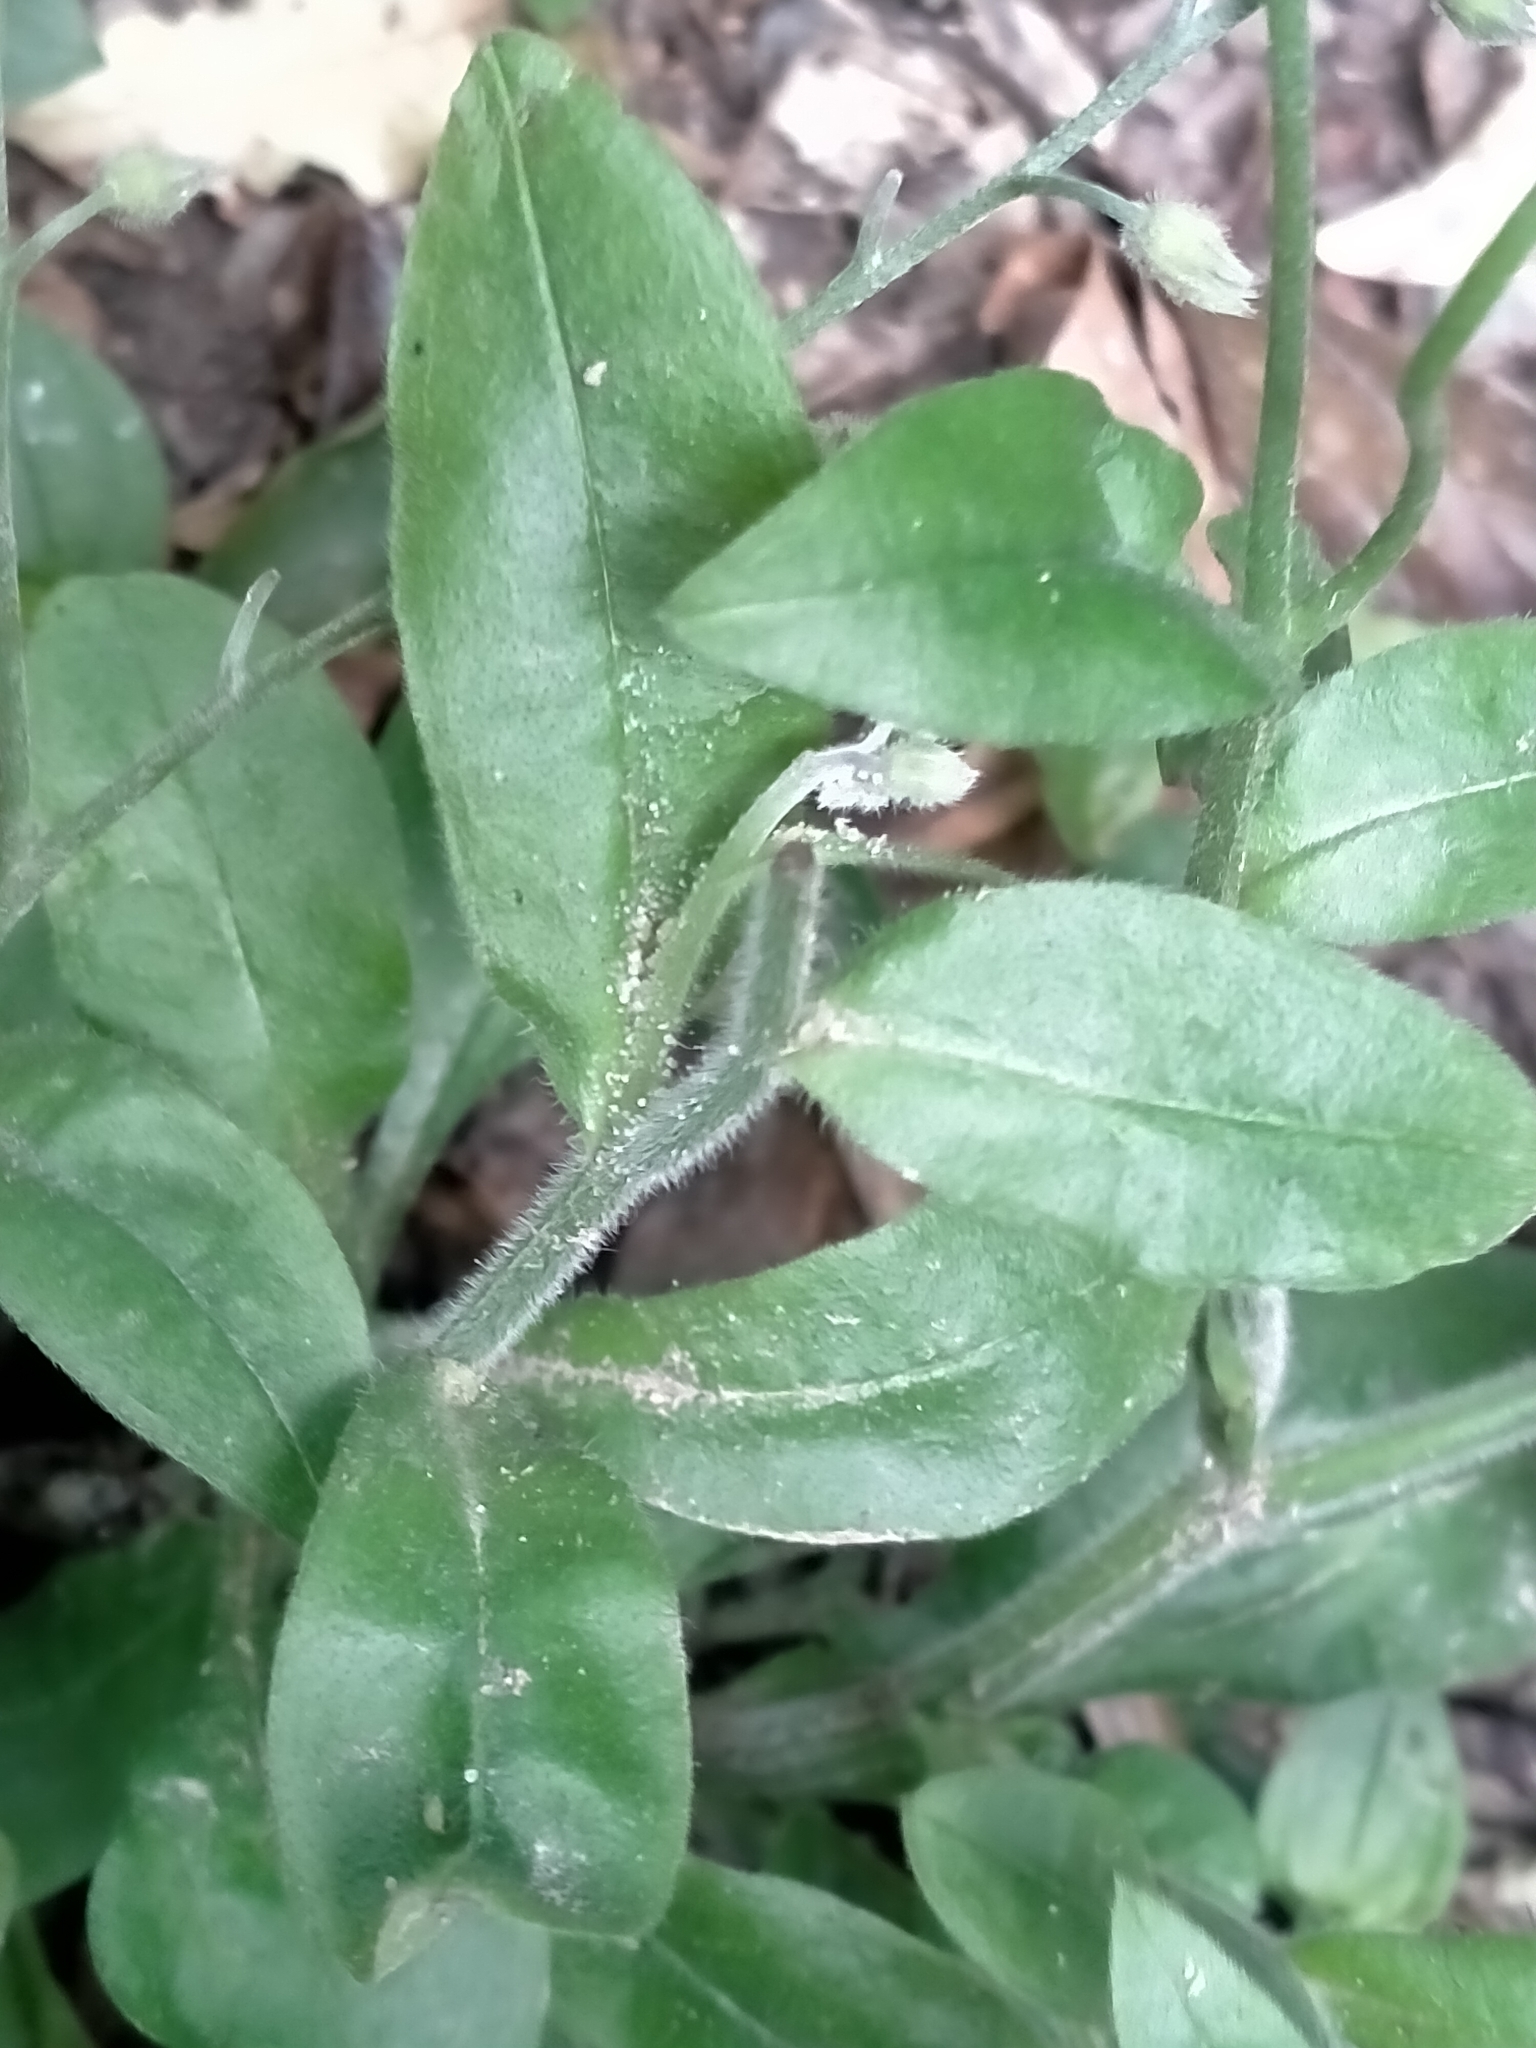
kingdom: Plantae
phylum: Tracheophyta
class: Magnoliopsida
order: Boraginales
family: Boraginaceae
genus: Myosotis
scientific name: Myosotis sylvatica
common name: Wood forget-me-not
